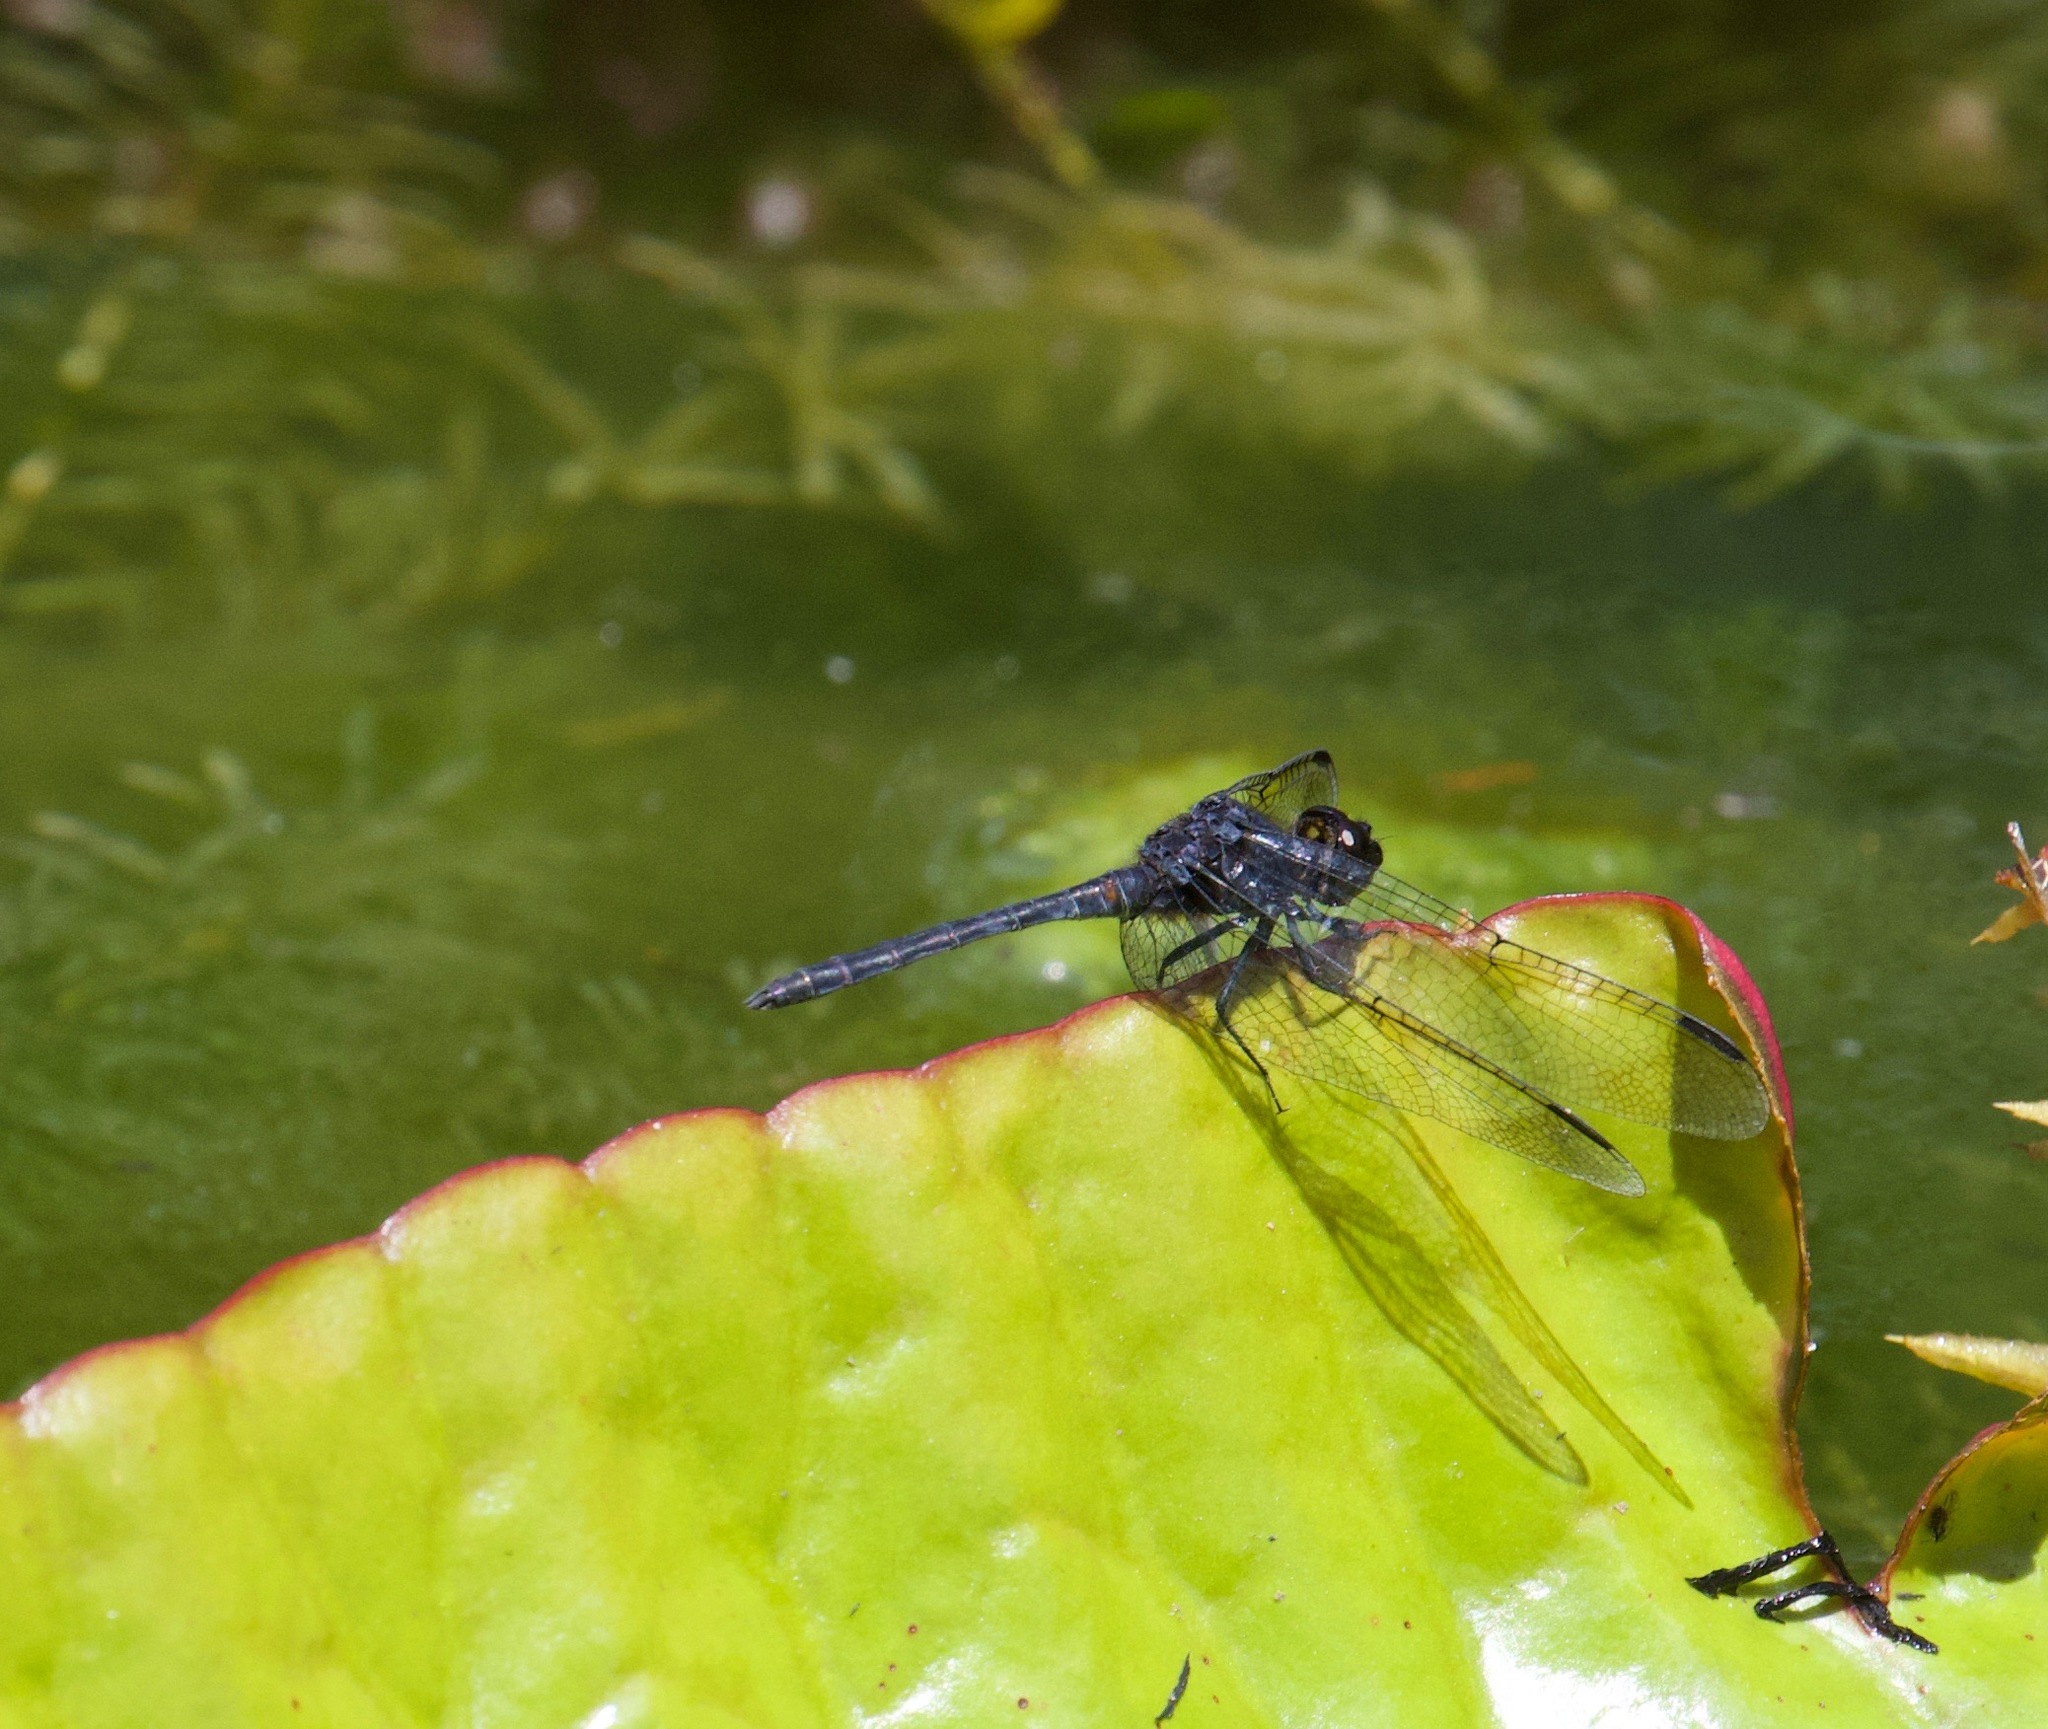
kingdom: Animalia
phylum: Arthropoda
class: Insecta
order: Odonata
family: Libellulidae
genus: Diplacodes
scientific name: Diplacodes lefebvrii
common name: Black percher
